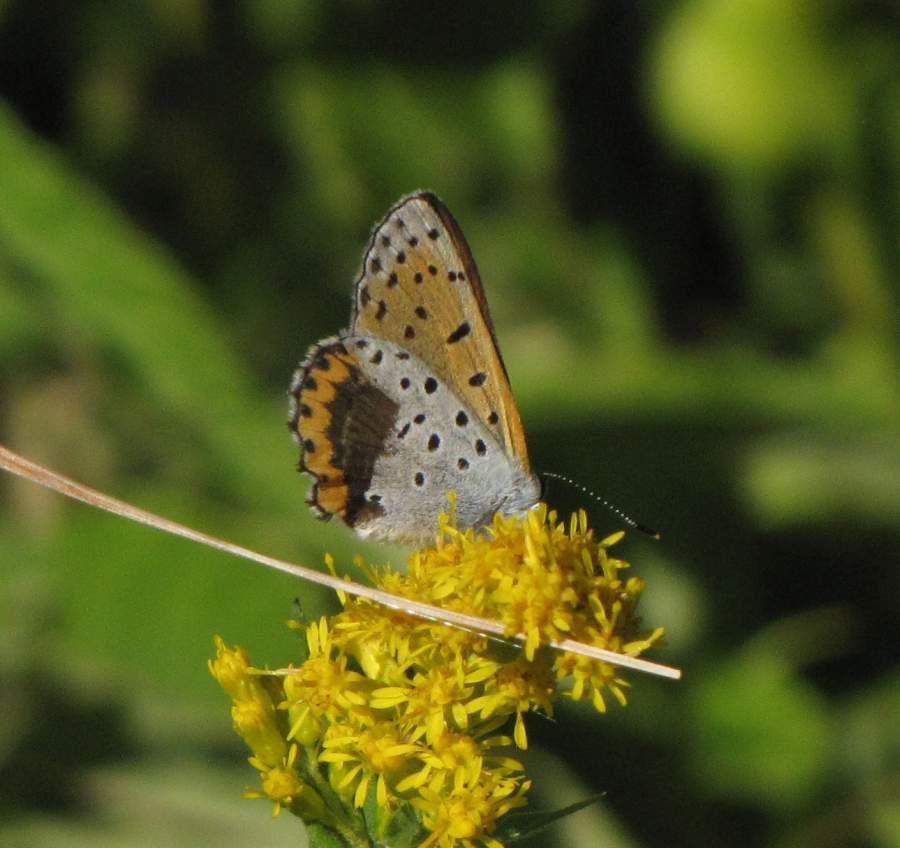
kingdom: Animalia
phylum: Arthropoda
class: Insecta
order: Lepidoptera
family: Lycaenidae
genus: Tharsalea
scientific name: Tharsalea hyllus
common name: Bronze copper
